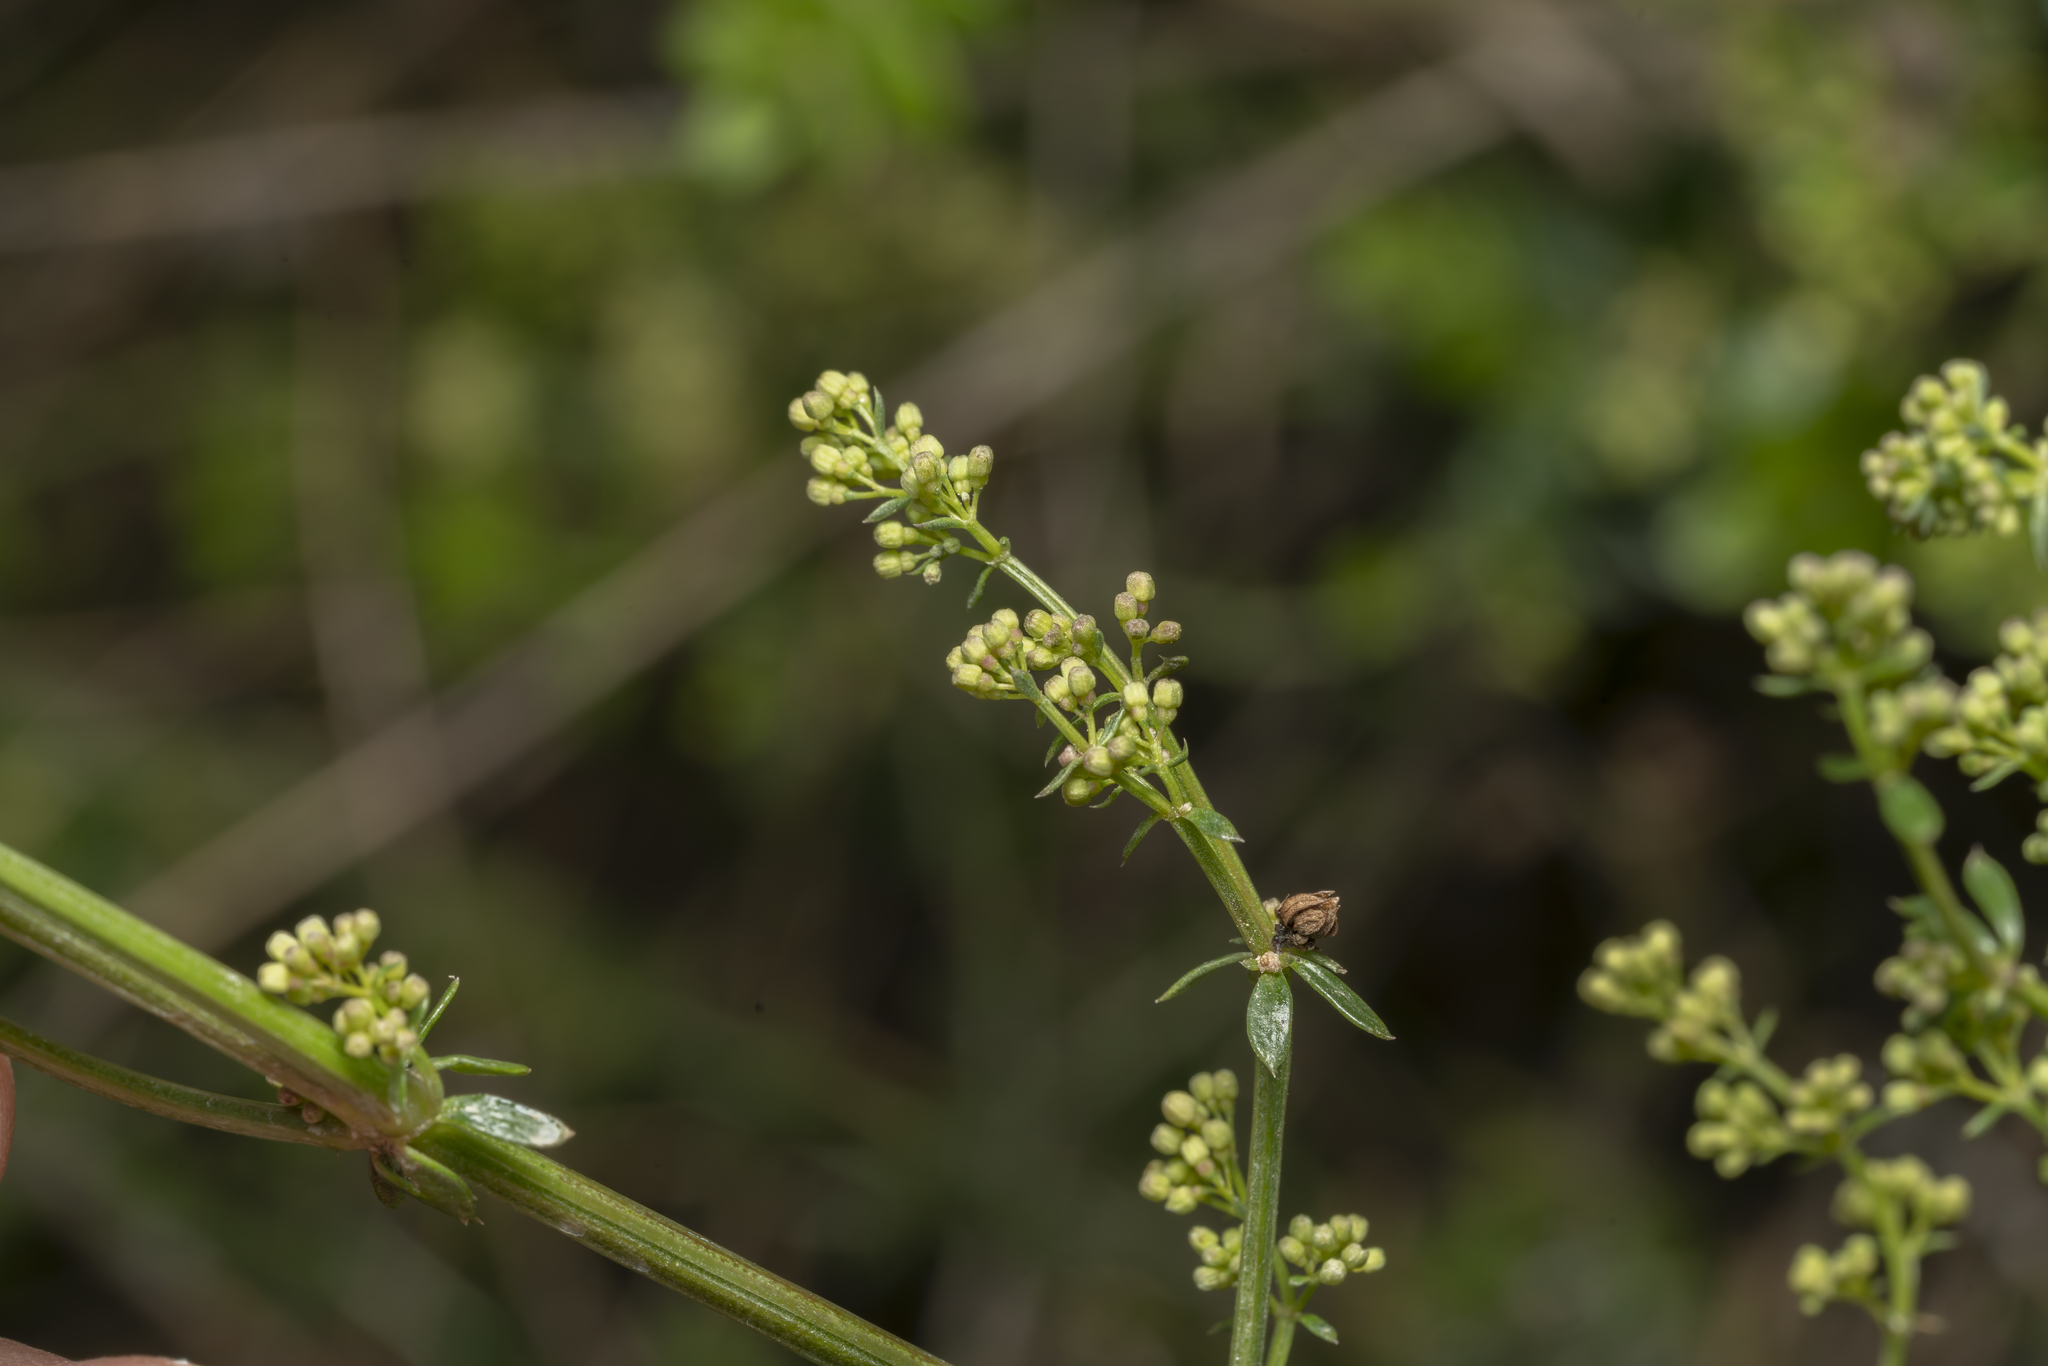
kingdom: Plantae
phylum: Tracheophyta
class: Magnoliopsida
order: Gentianales
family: Rubiaceae
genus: Galium
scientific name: Galium heldreichii
